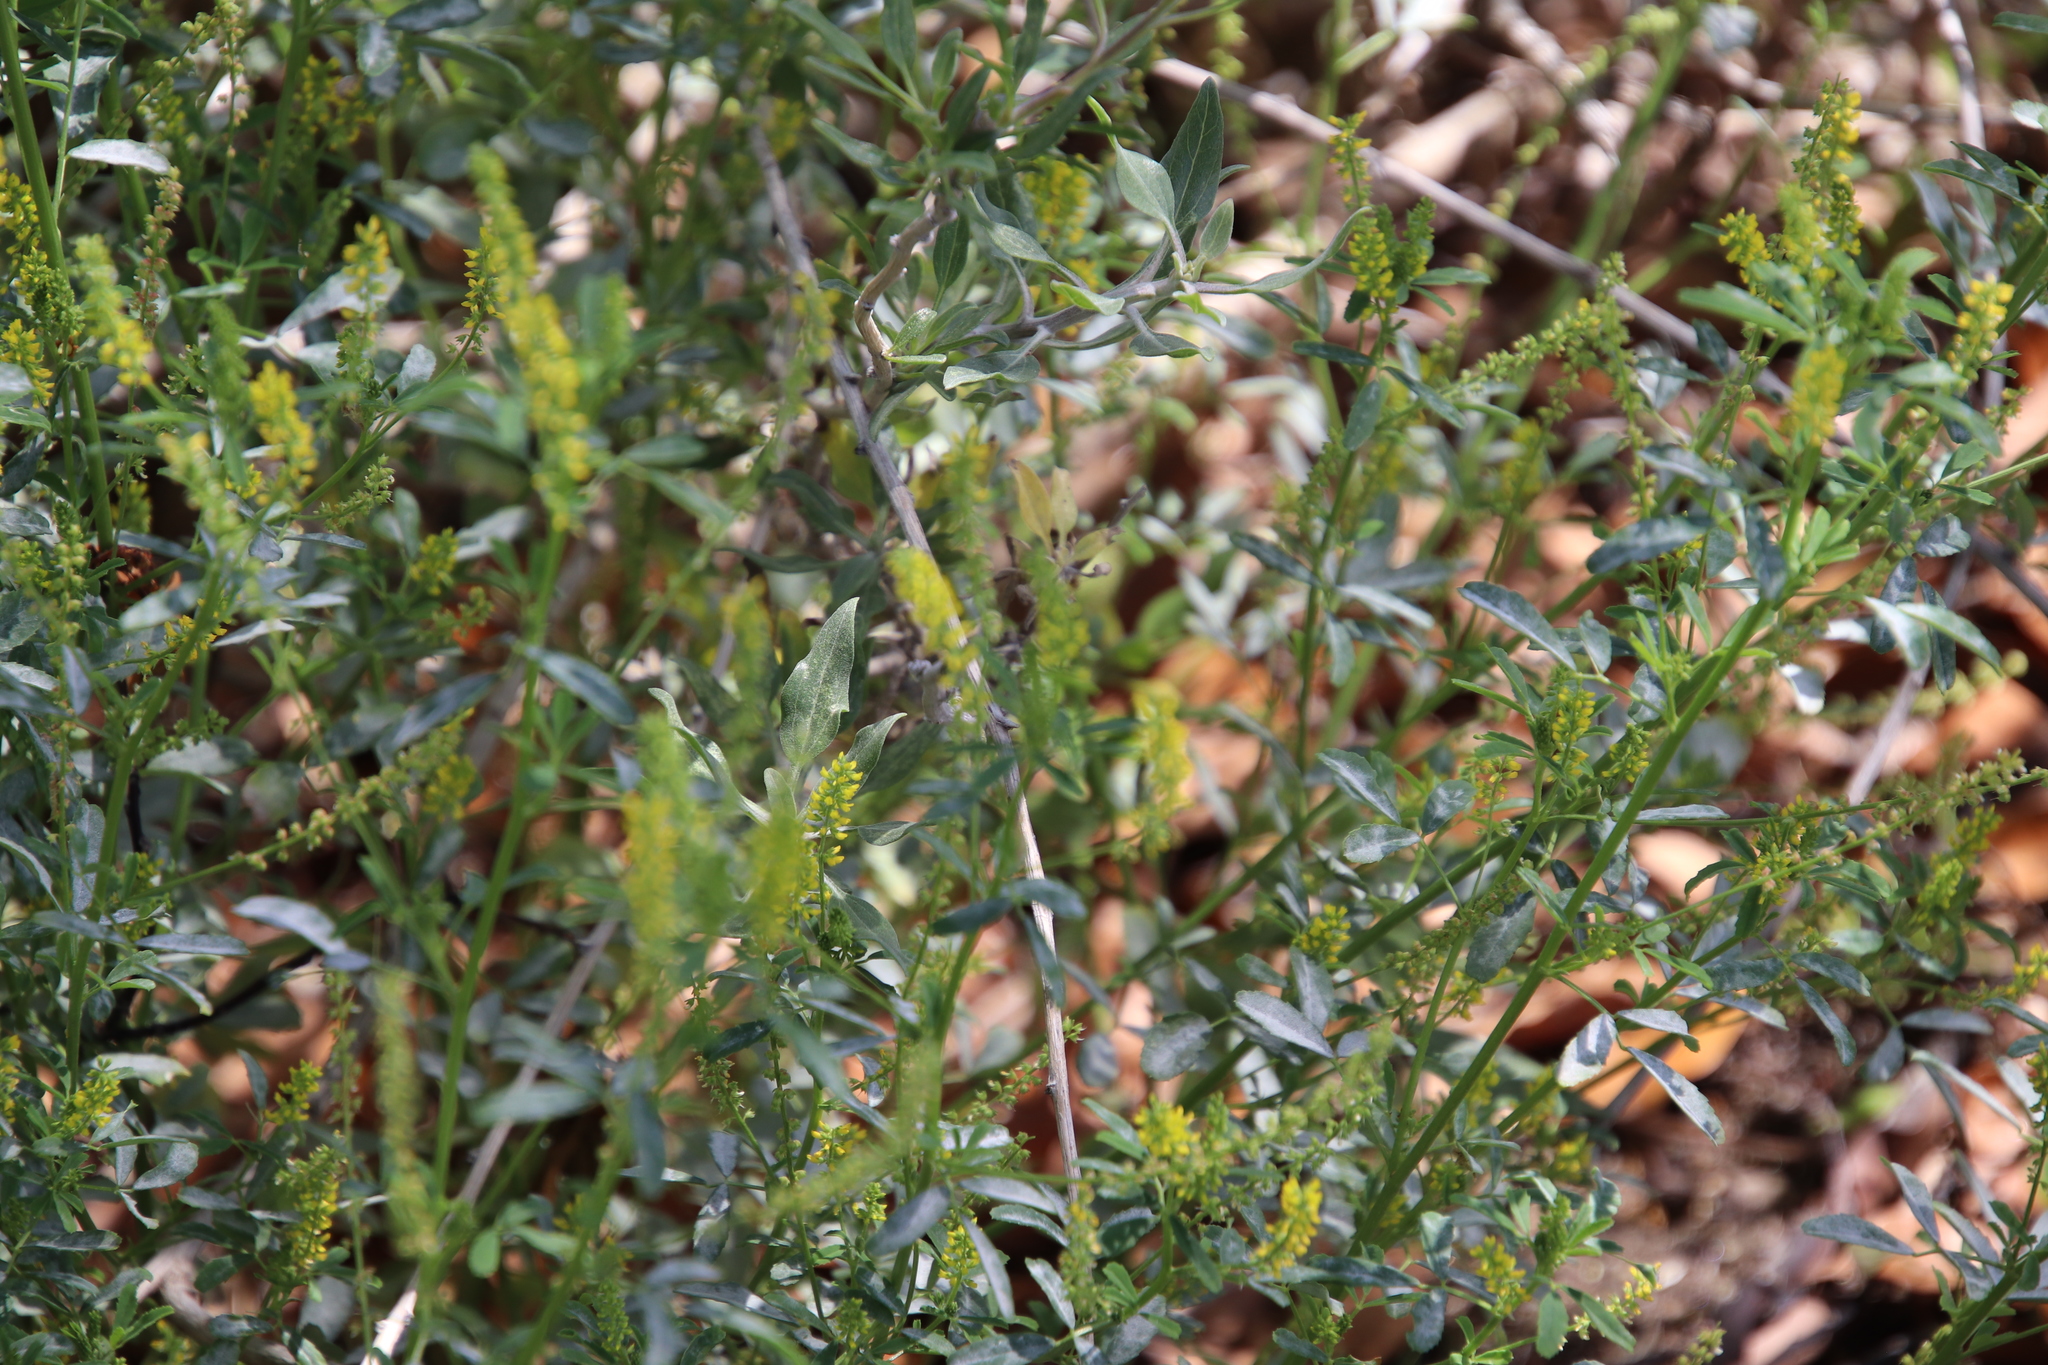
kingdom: Plantae
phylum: Tracheophyta
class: Magnoliopsida
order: Fabales
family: Fabaceae
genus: Melilotus
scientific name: Melilotus indicus
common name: Small melilot
